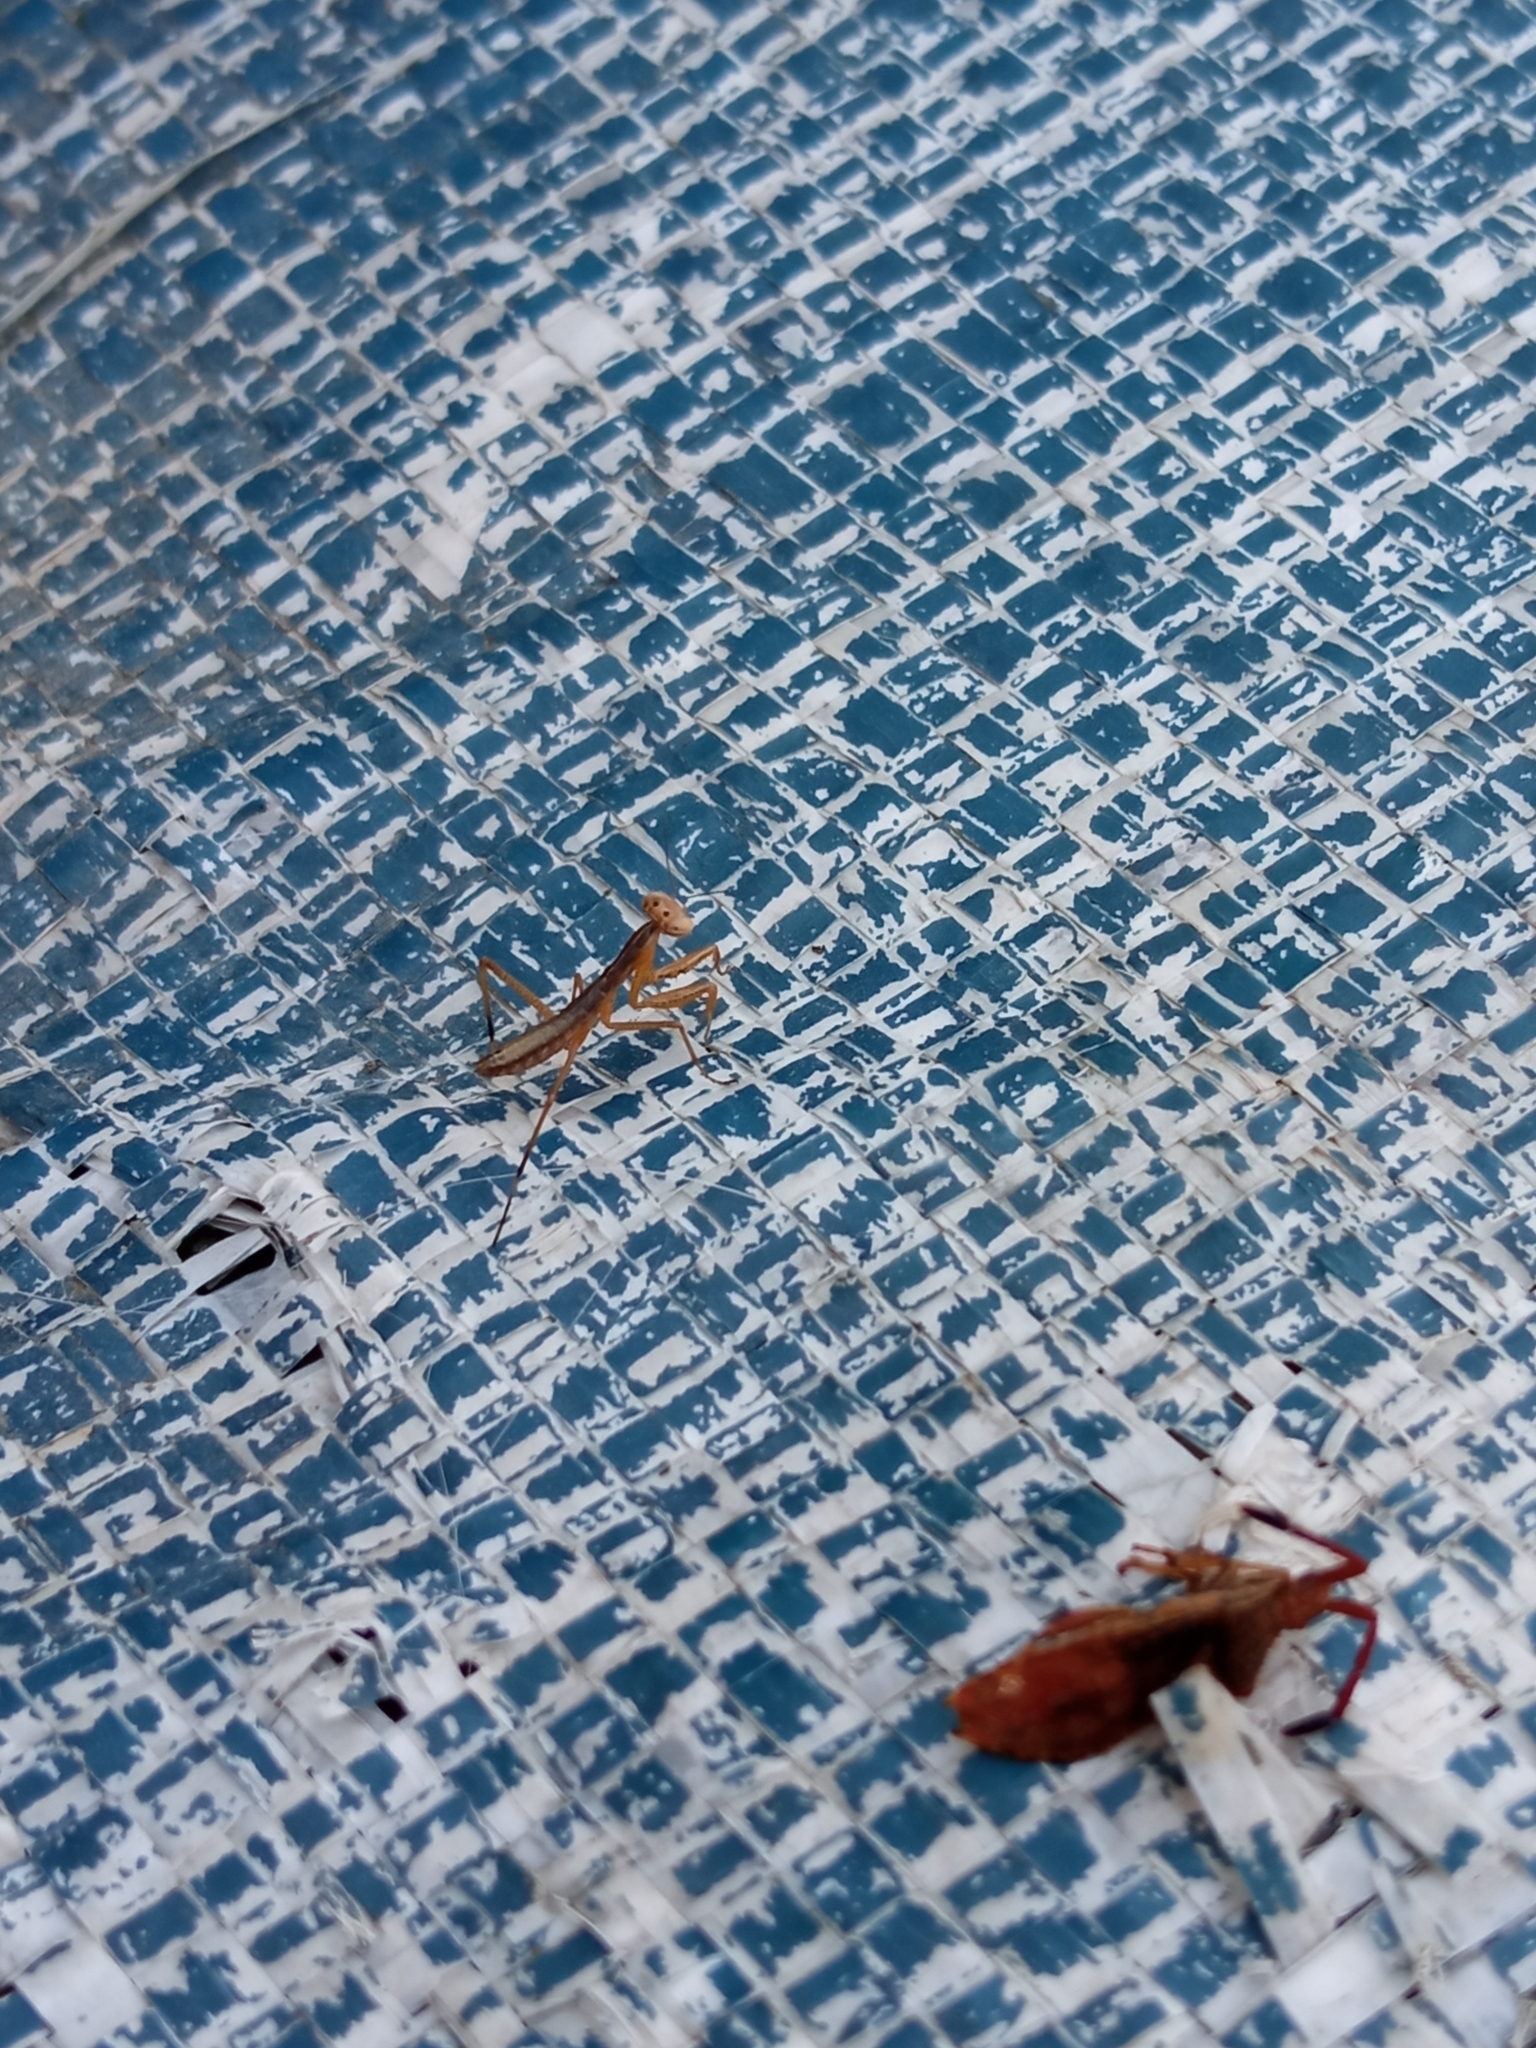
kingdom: Animalia
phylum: Arthropoda
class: Insecta
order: Mantodea
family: Mantidae
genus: Mantis
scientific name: Mantis religiosa
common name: Praying mantis
